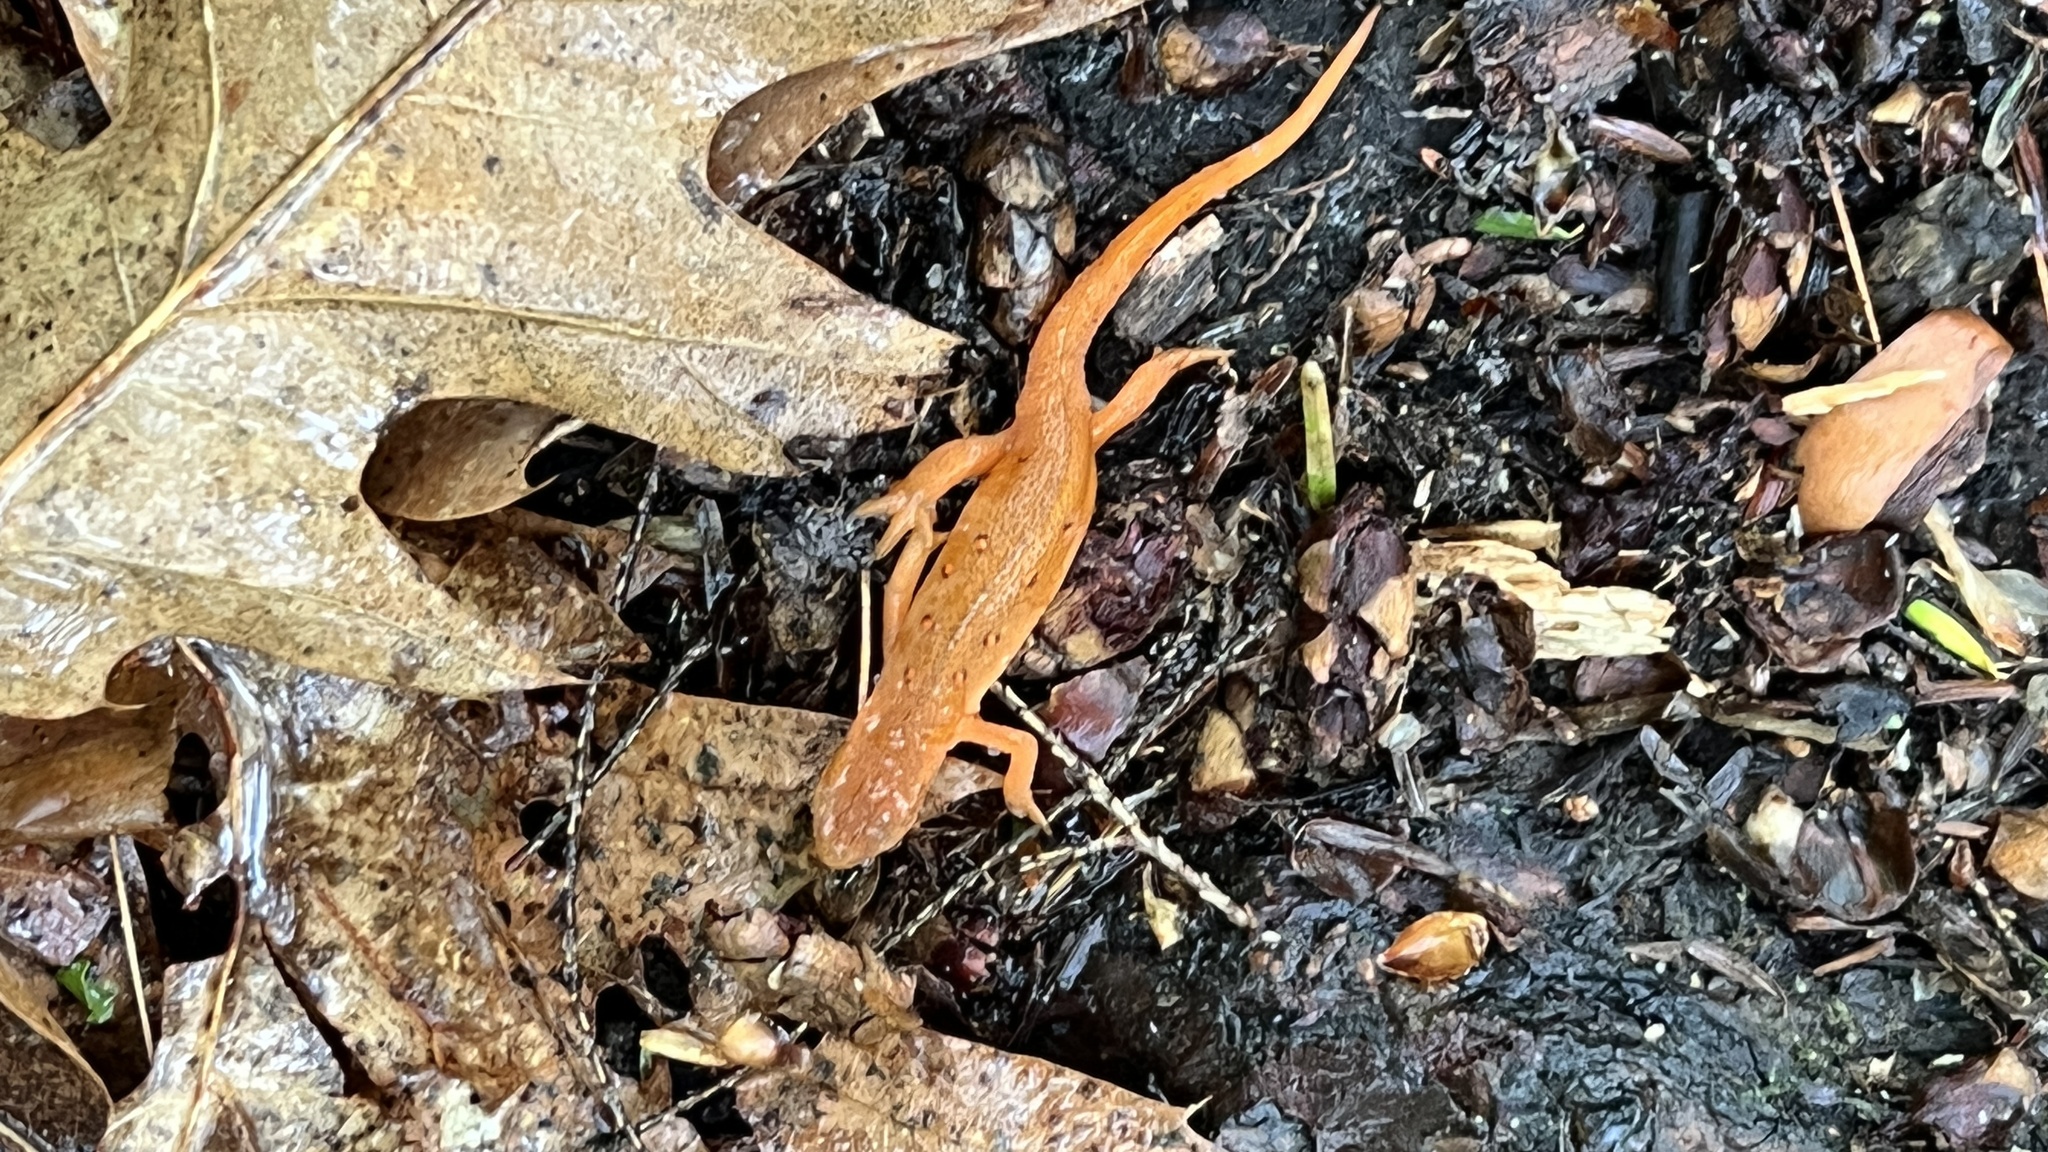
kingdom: Animalia
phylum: Chordata
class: Amphibia
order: Caudata
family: Salamandridae
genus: Notophthalmus
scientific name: Notophthalmus viridescens
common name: Eastern newt
